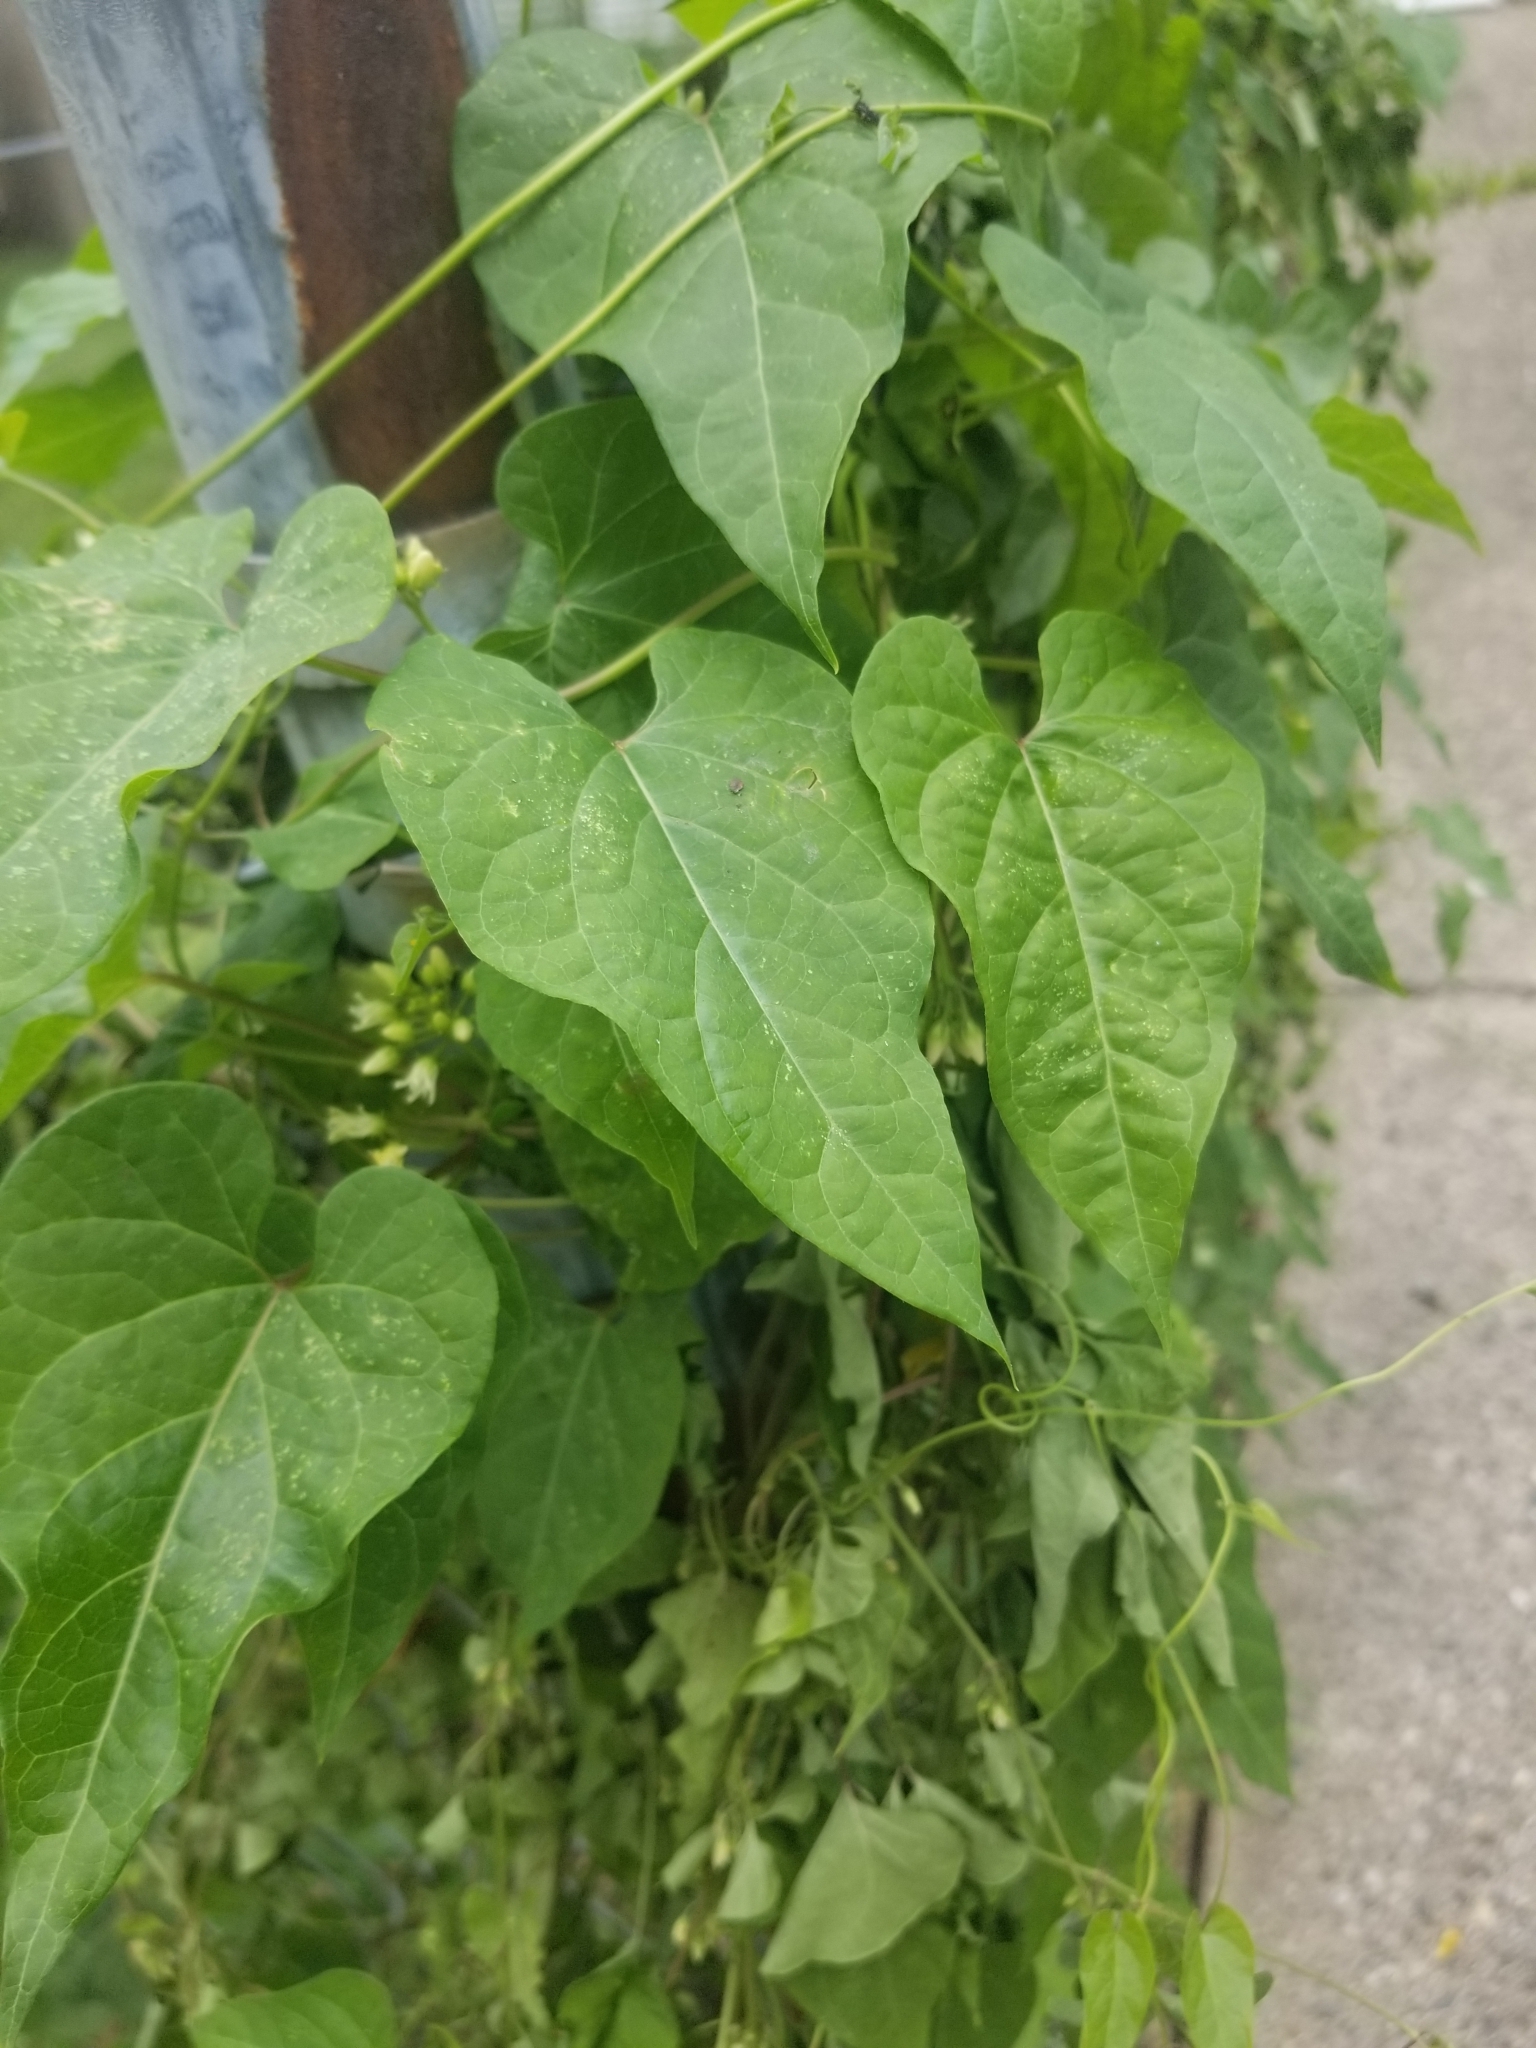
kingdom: Plantae
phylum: Tracheophyta
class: Magnoliopsida
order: Gentianales
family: Apocynaceae
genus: Cynanchum
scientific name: Cynanchum laeve
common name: Sandvine
